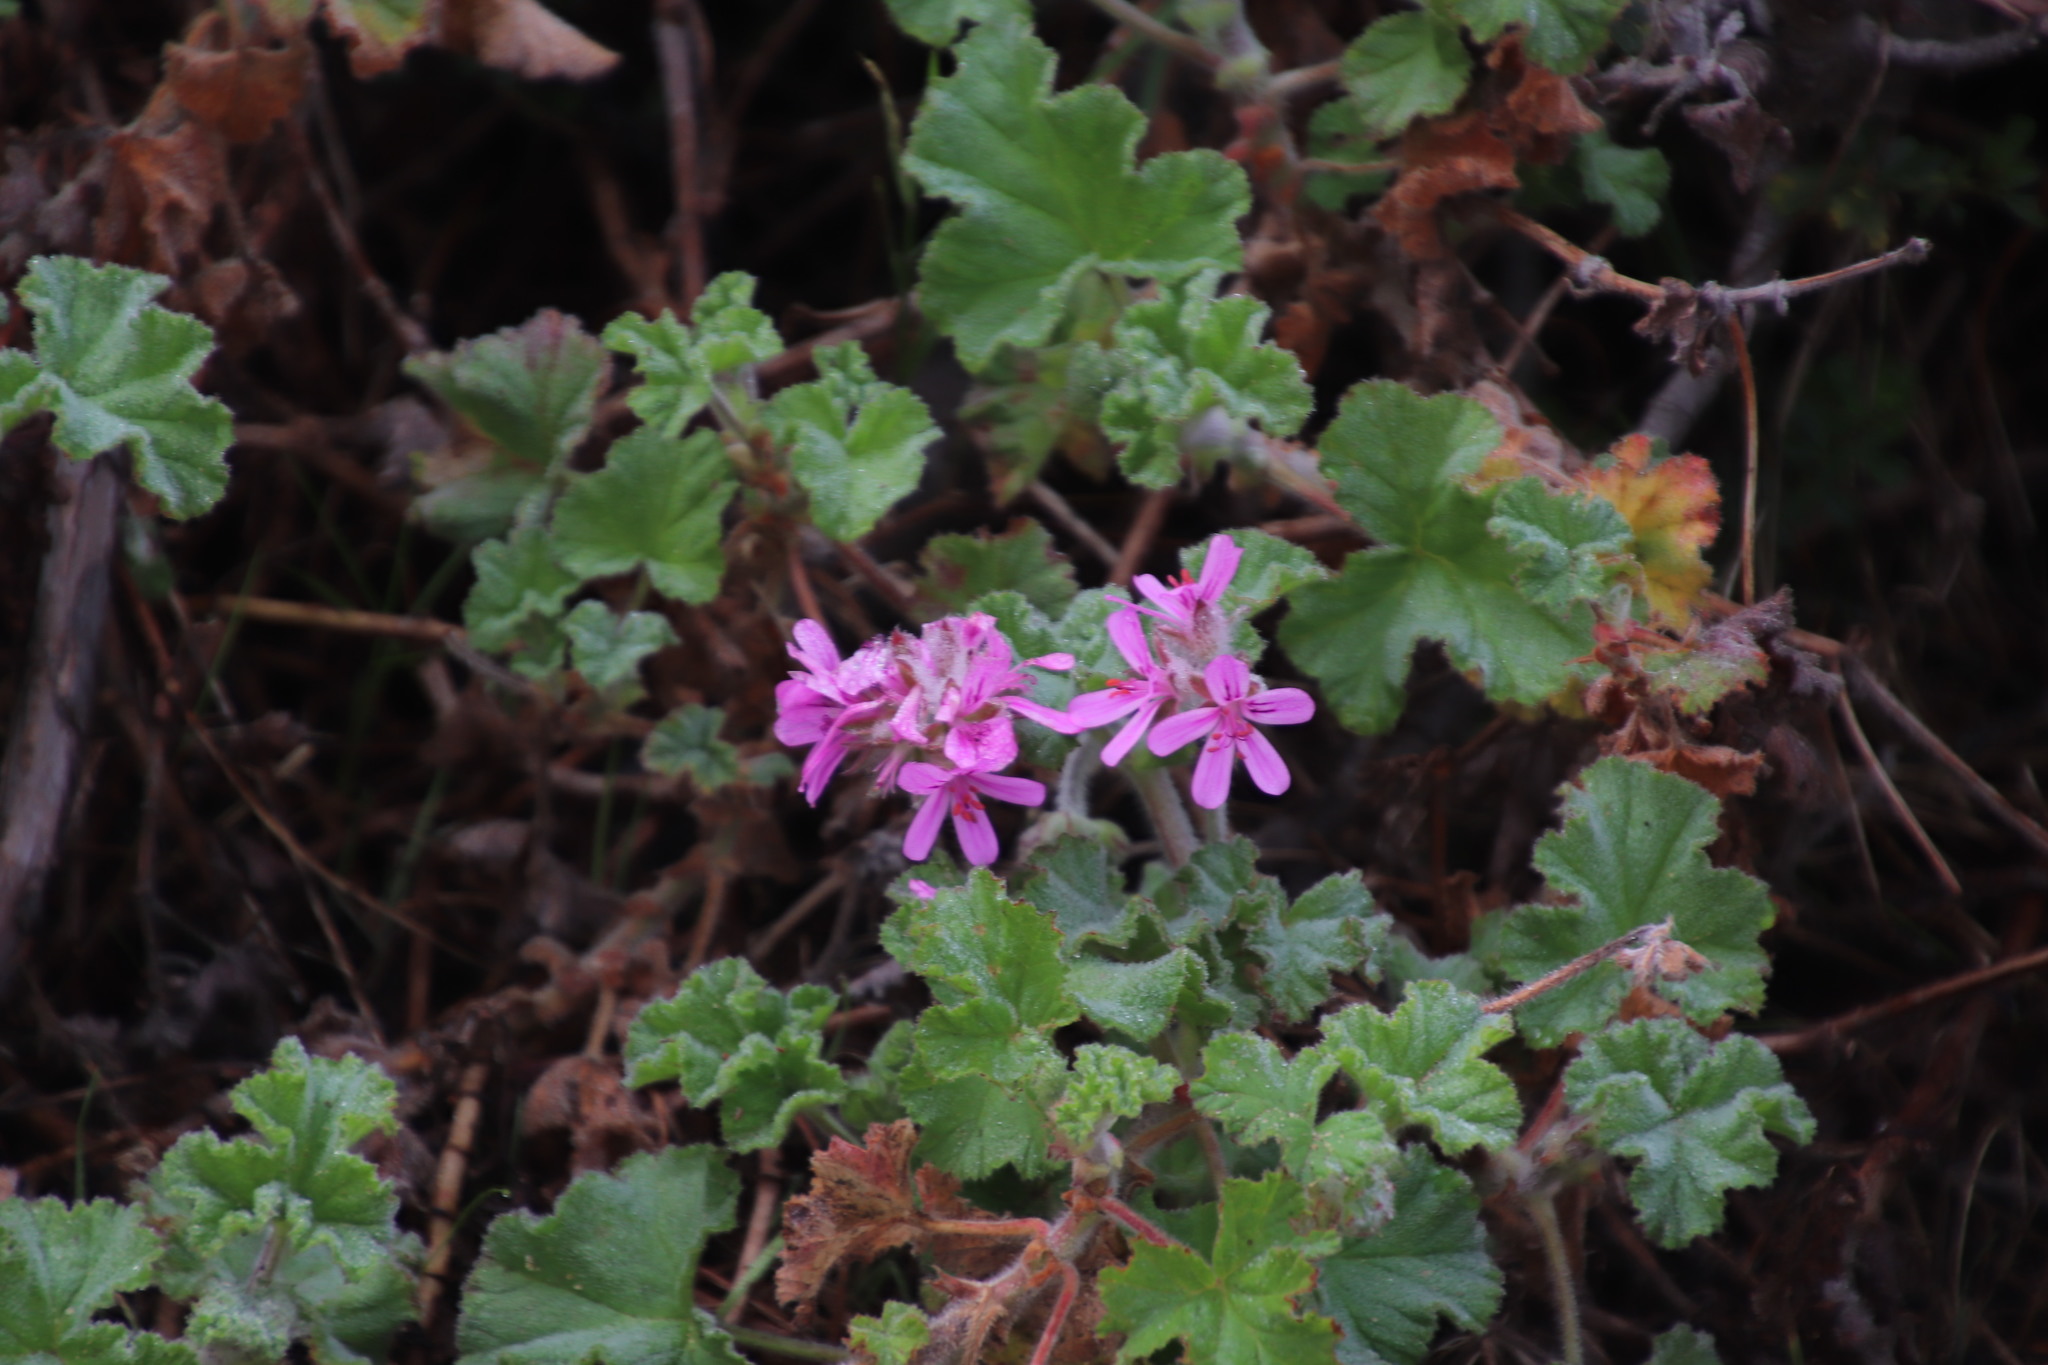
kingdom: Plantae
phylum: Tracheophyta
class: Magnoliopsida
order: Geraniales
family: Geraniaceae
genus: Pelargonium
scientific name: Pelargonium capitatum
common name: Rose scented geranium
